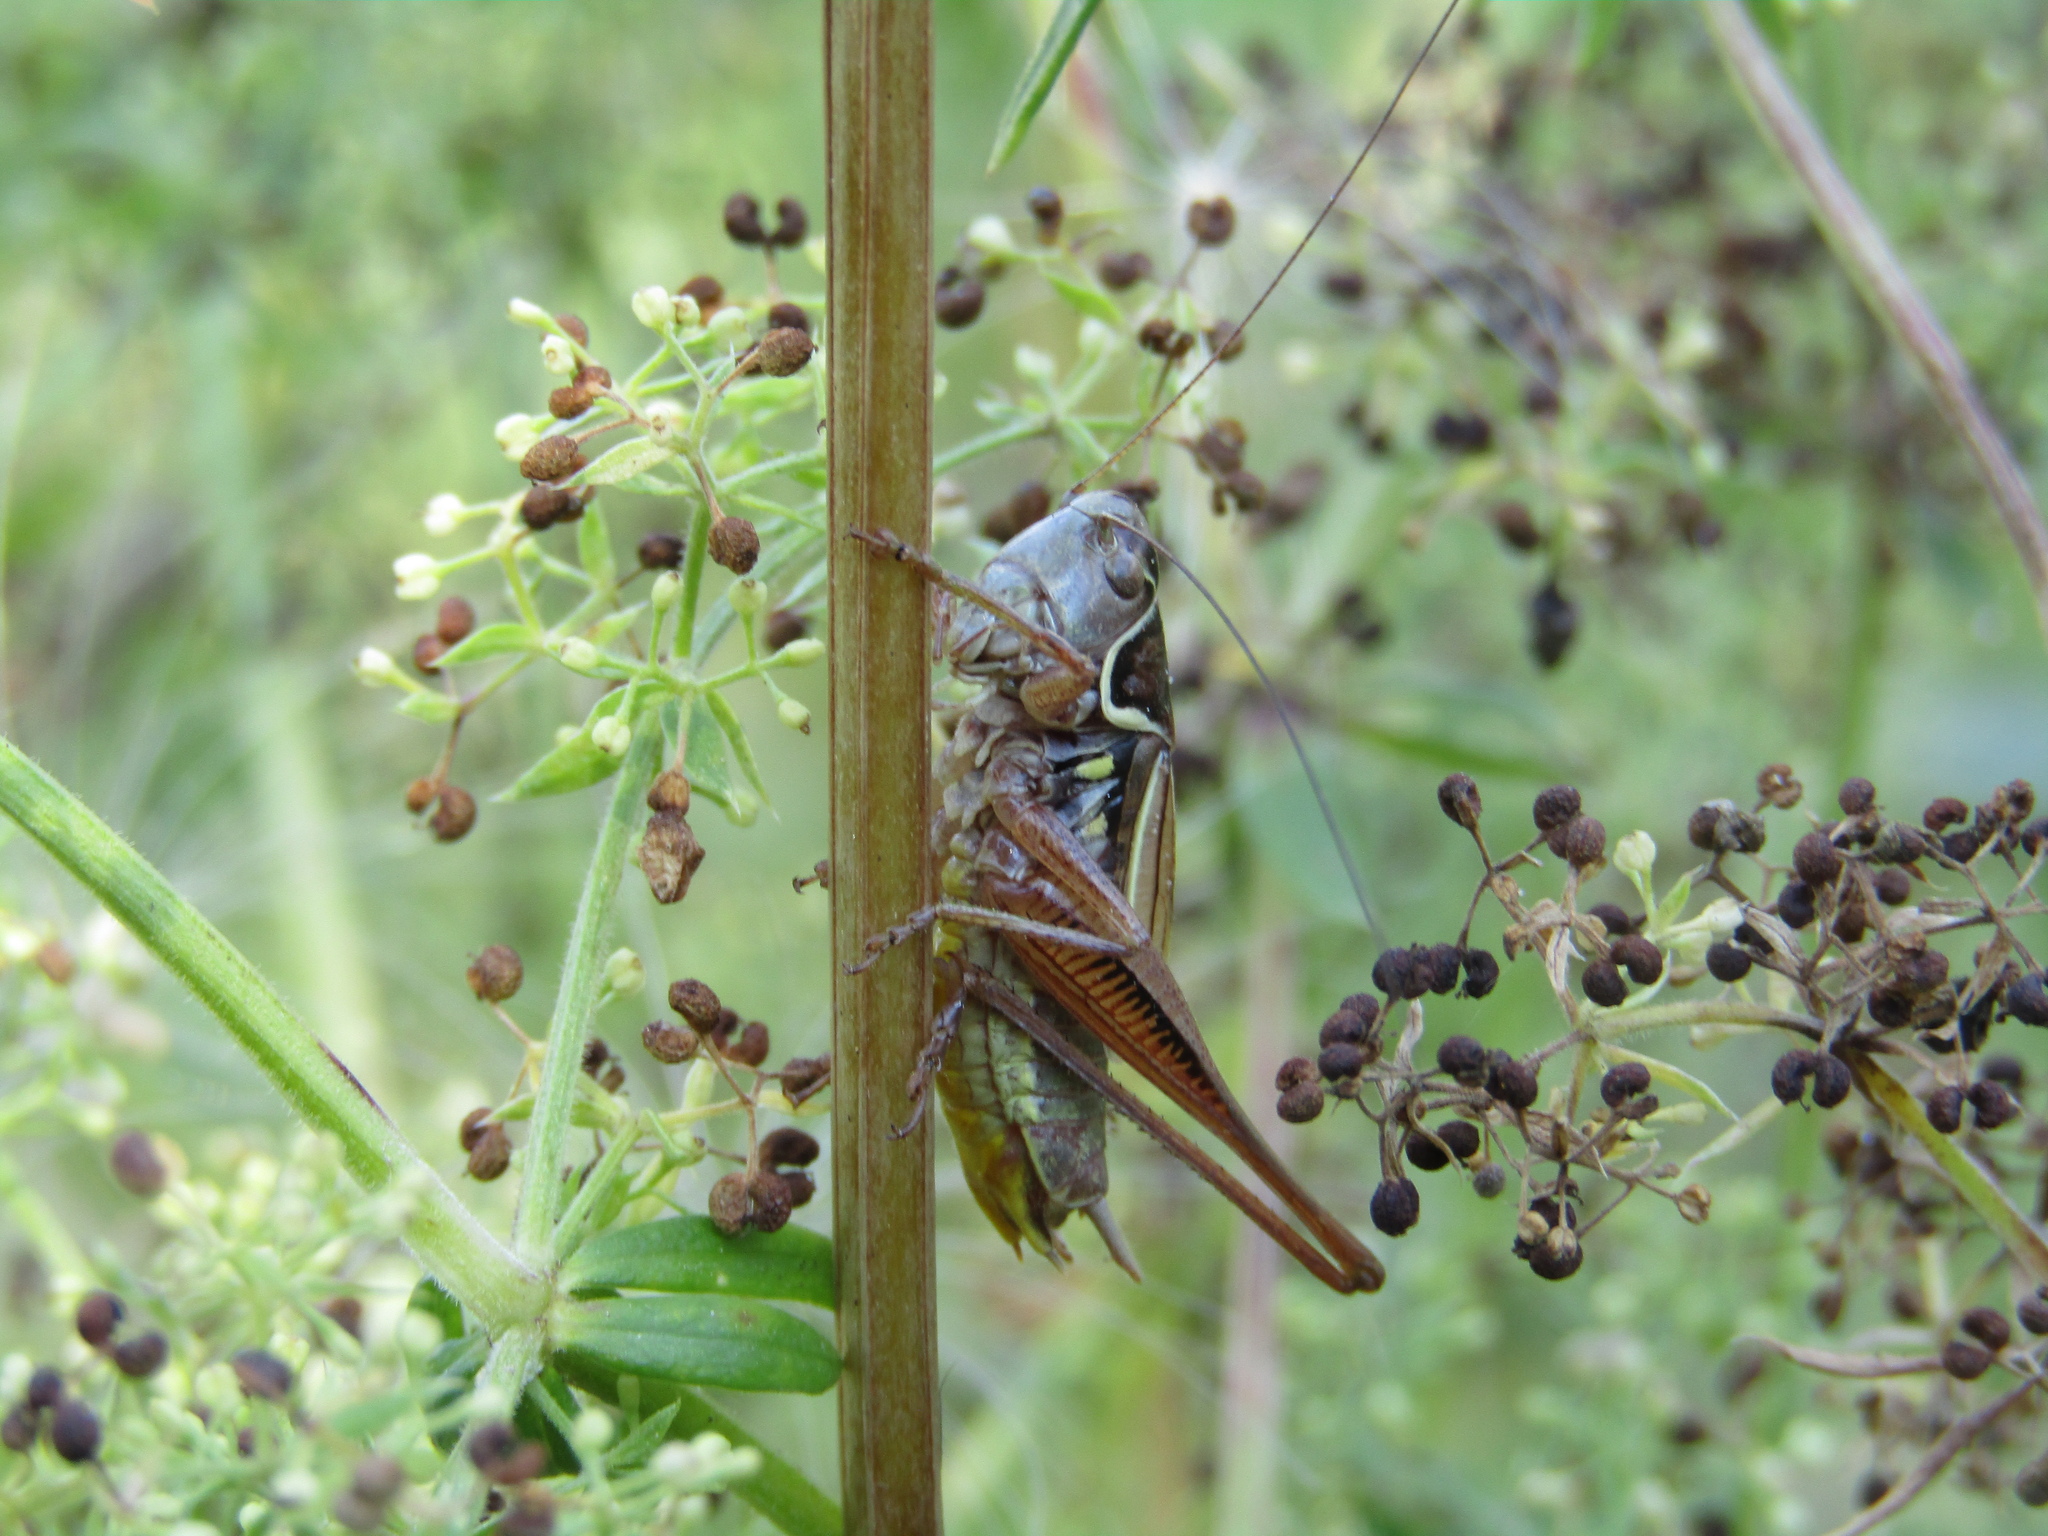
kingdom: Animalia
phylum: Arthropoda
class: Insecta
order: Orthoptera
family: Tettigoniidae
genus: Roeseliana
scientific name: Roeseliana roeselii
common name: Roesel's bush cricket
